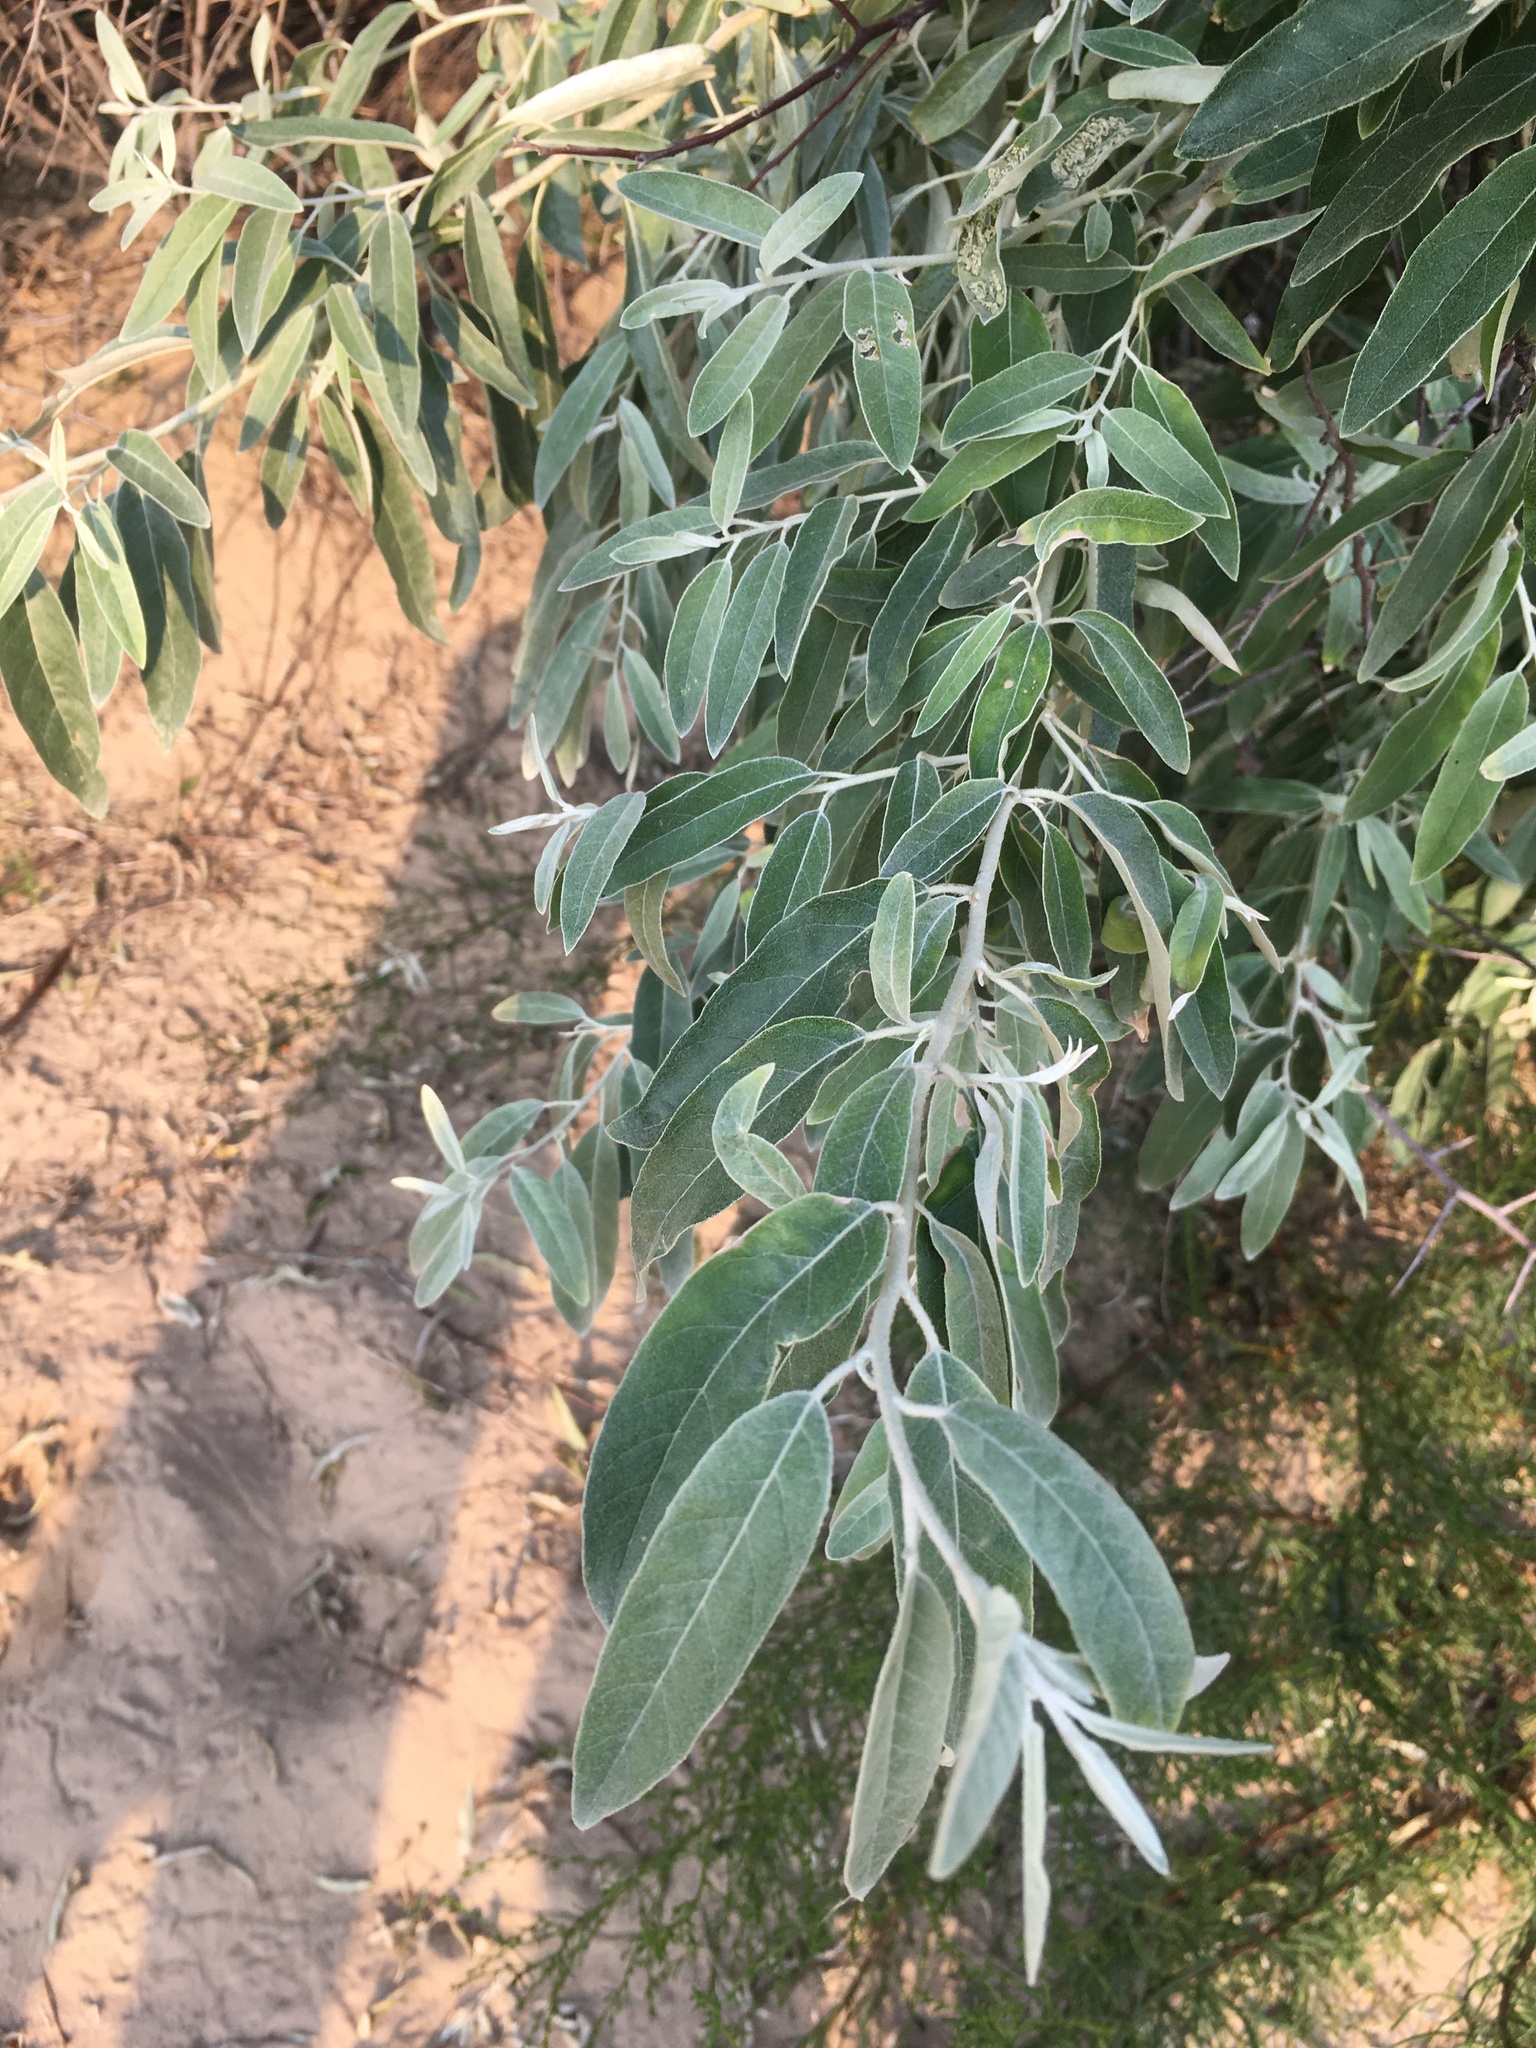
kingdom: Plantae
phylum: Tracheophyta
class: Magnoliopsida
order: Rosales
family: Elaeagnaceae
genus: Elaeagnus
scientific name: Elaeagnus angustifolia
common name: Russian olive
